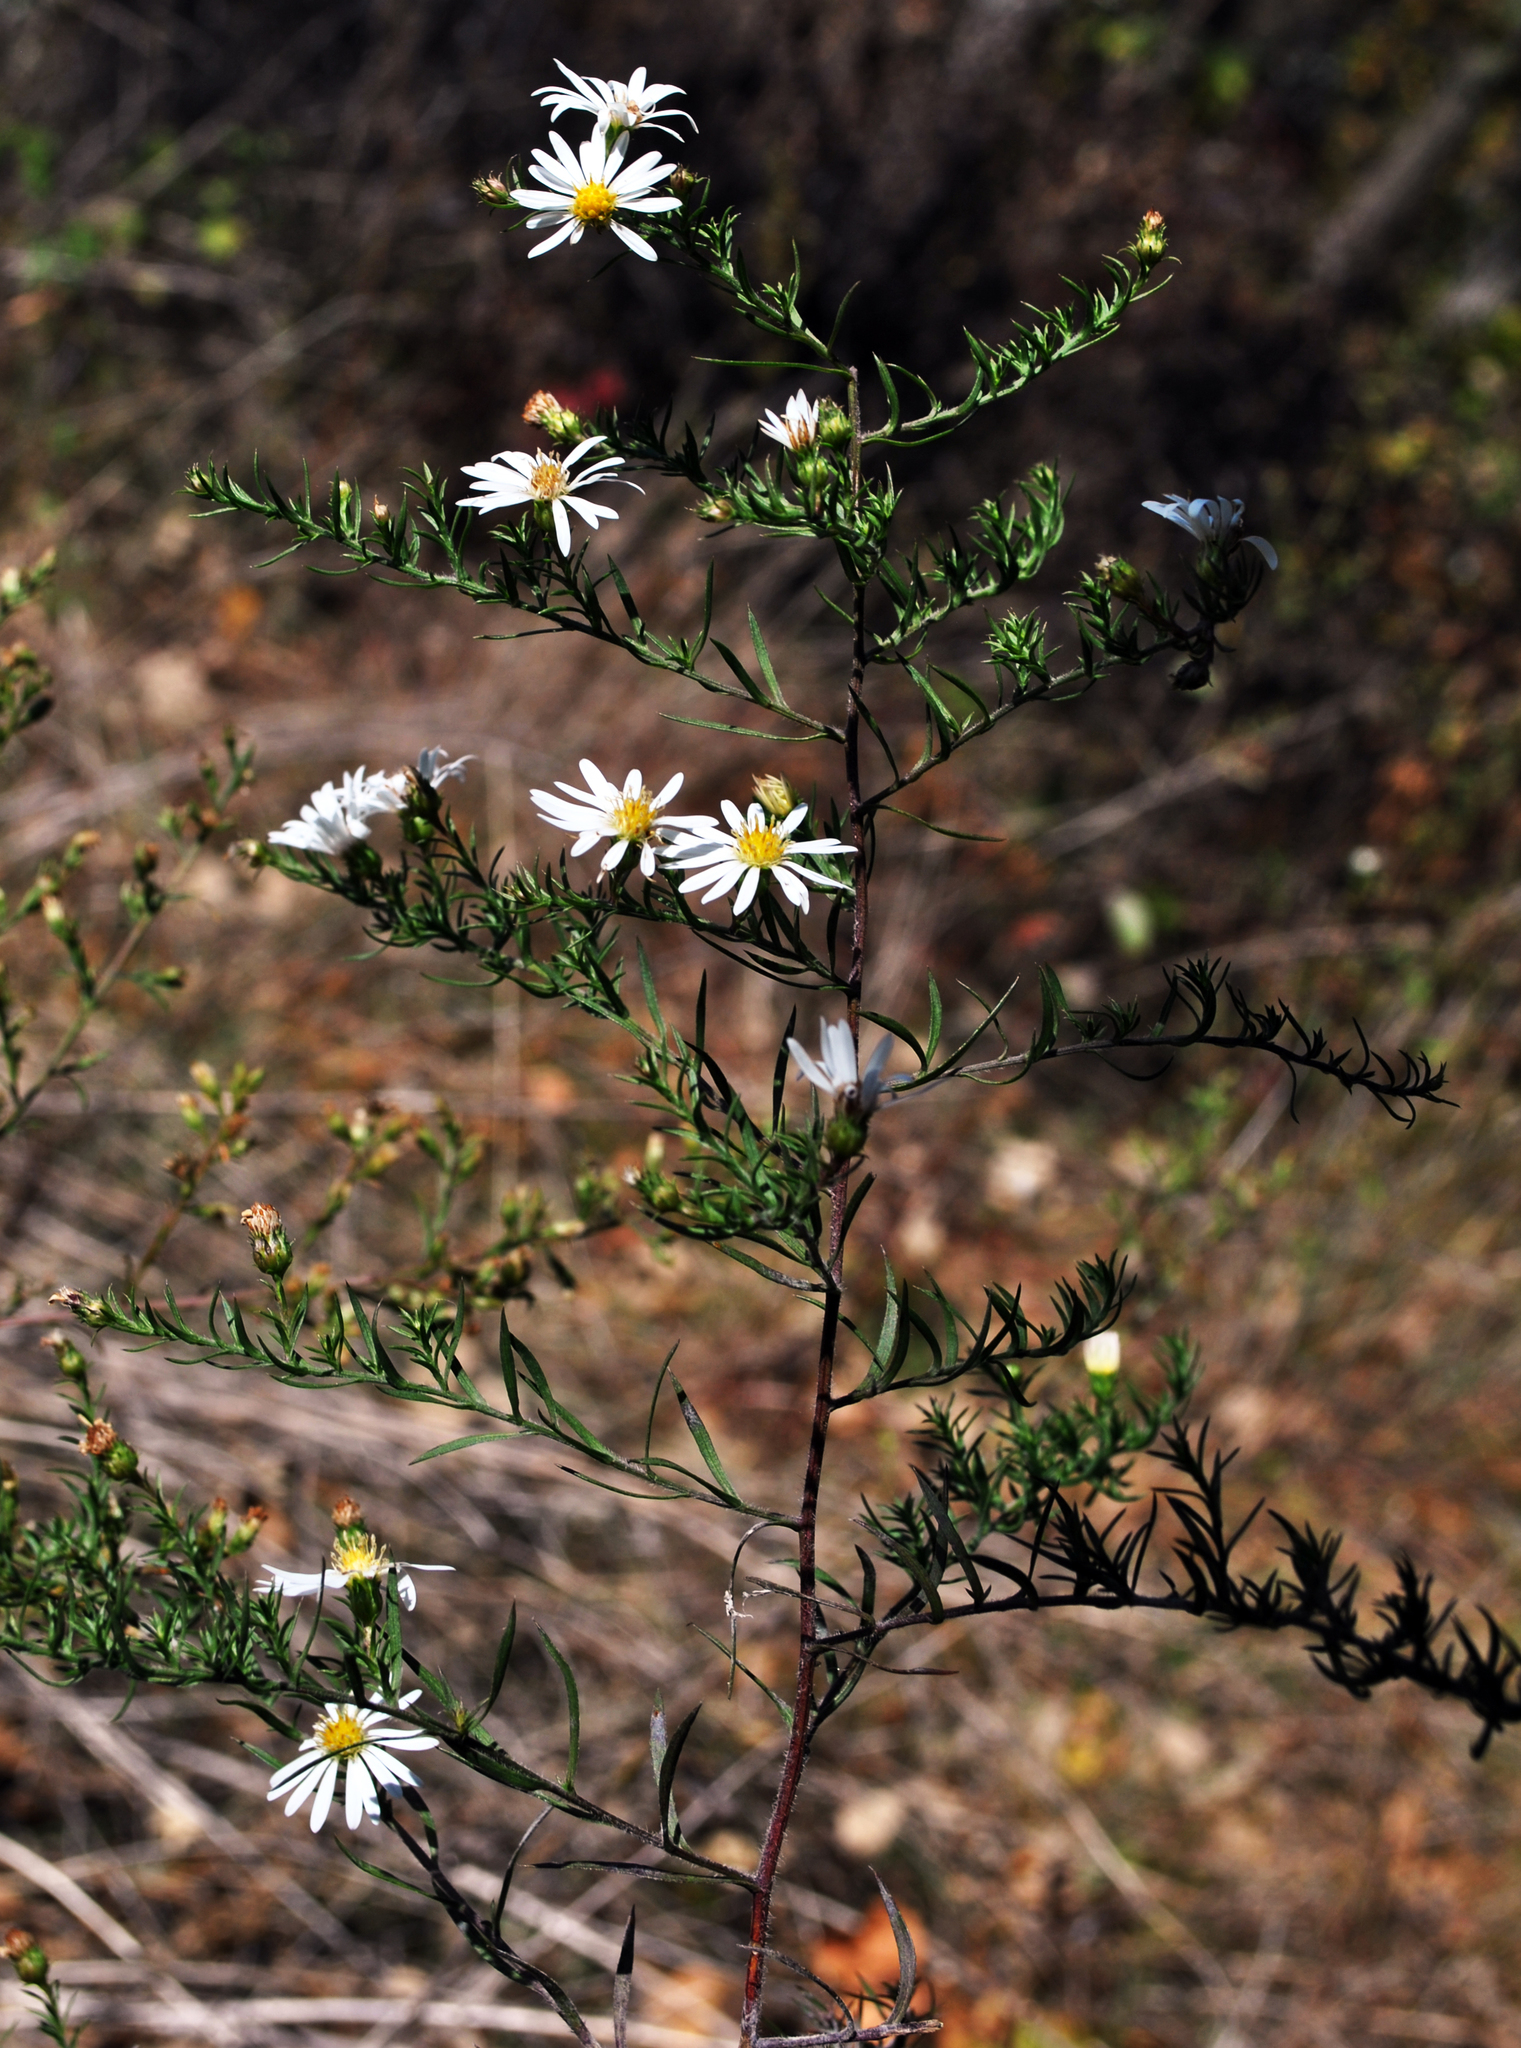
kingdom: Plantae
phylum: Tracheophyta
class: Magnoliopsida
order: Asterales
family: Asteraceae
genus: Symphyotrichum
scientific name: Symphyotrichum pilosum
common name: Awl aster
